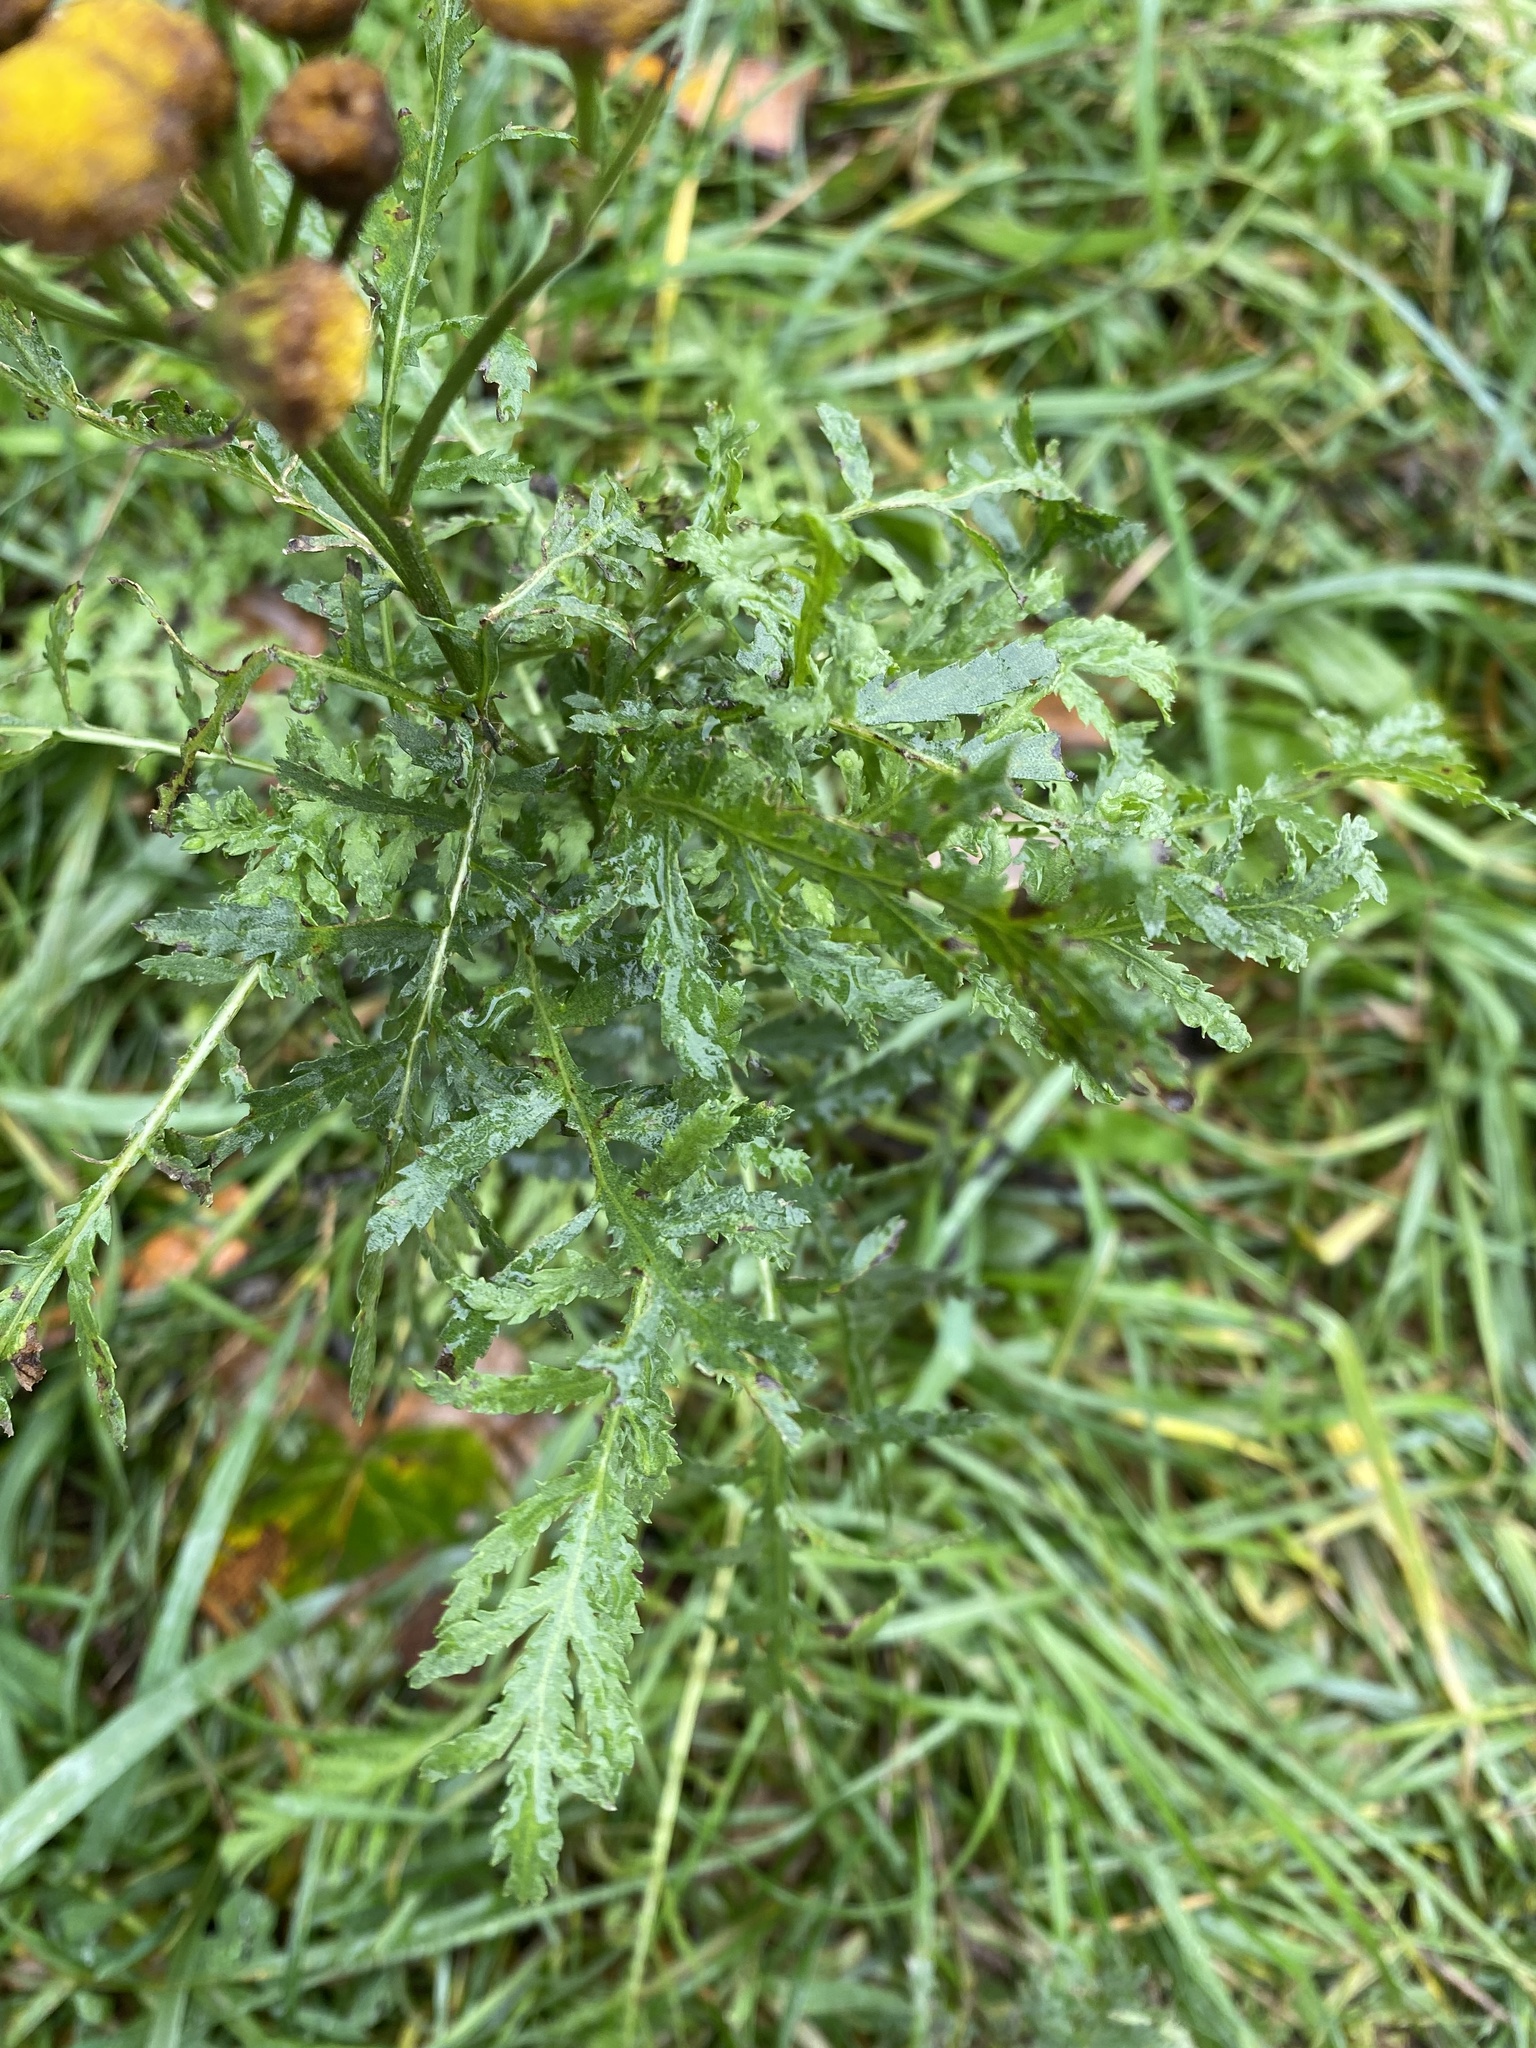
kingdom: Plantae
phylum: Tracheophyta
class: Magnoliopsida
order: Asterales
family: Asteraceae
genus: Tanacetum
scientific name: Tanacetum vulgare
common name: Common tansy
